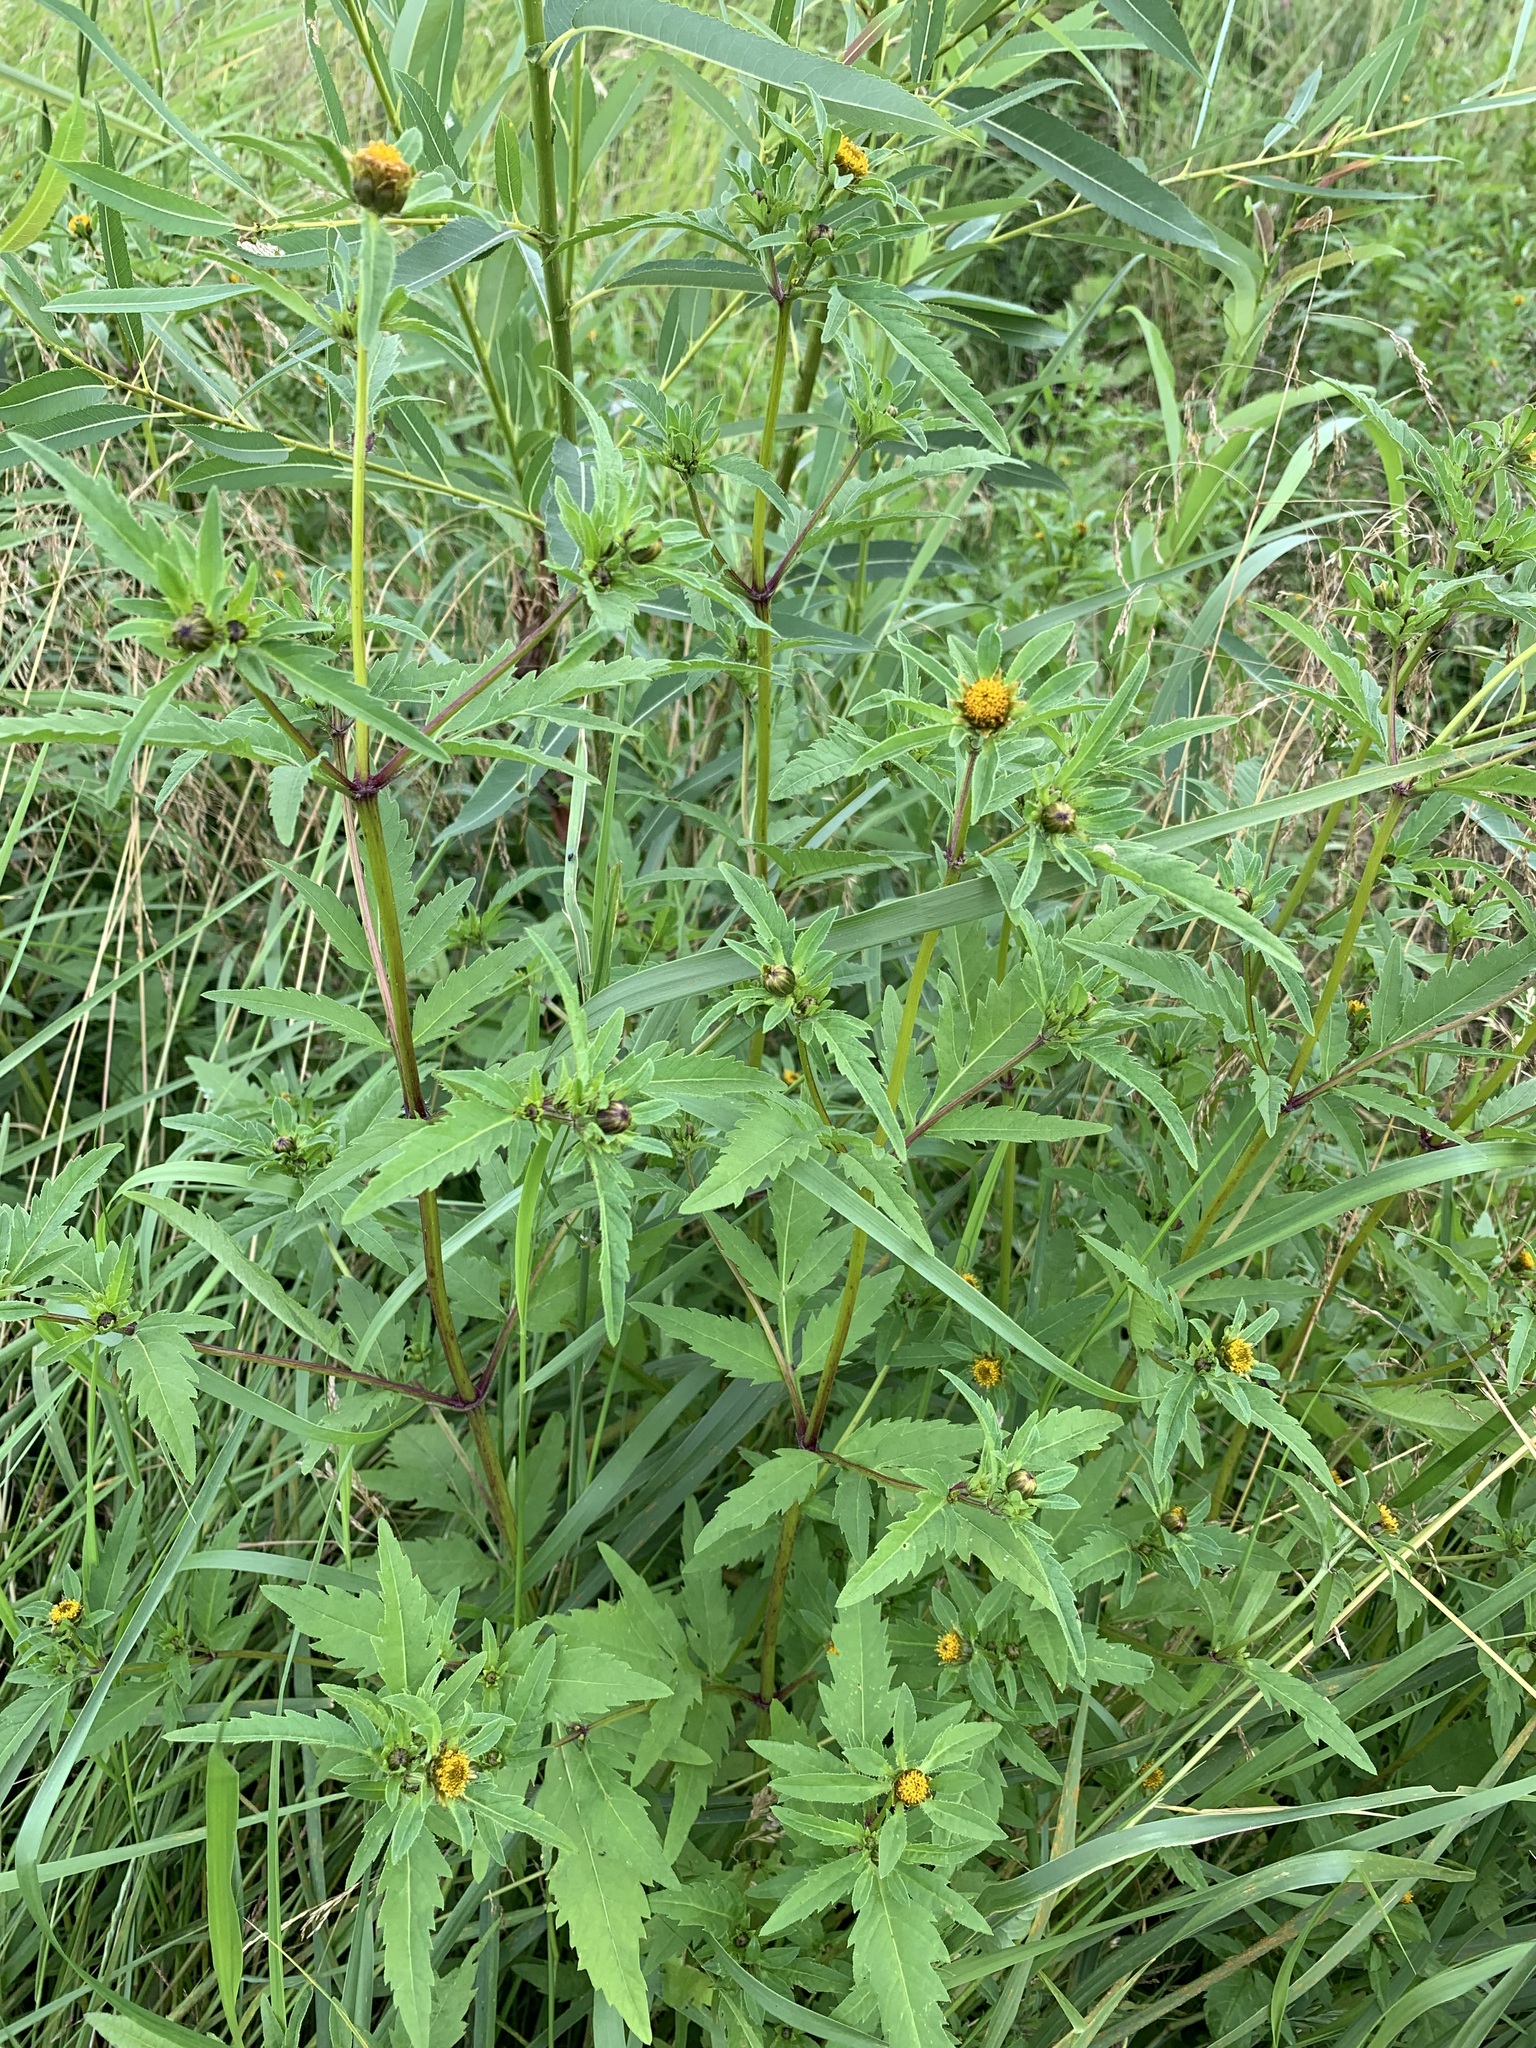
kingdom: Plantae
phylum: Tracheophyta
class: Magnoliopsida
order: Asterales
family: Asteraceae
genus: Bidens
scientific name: Bidens tripartita
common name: Trifid bur-marigold
